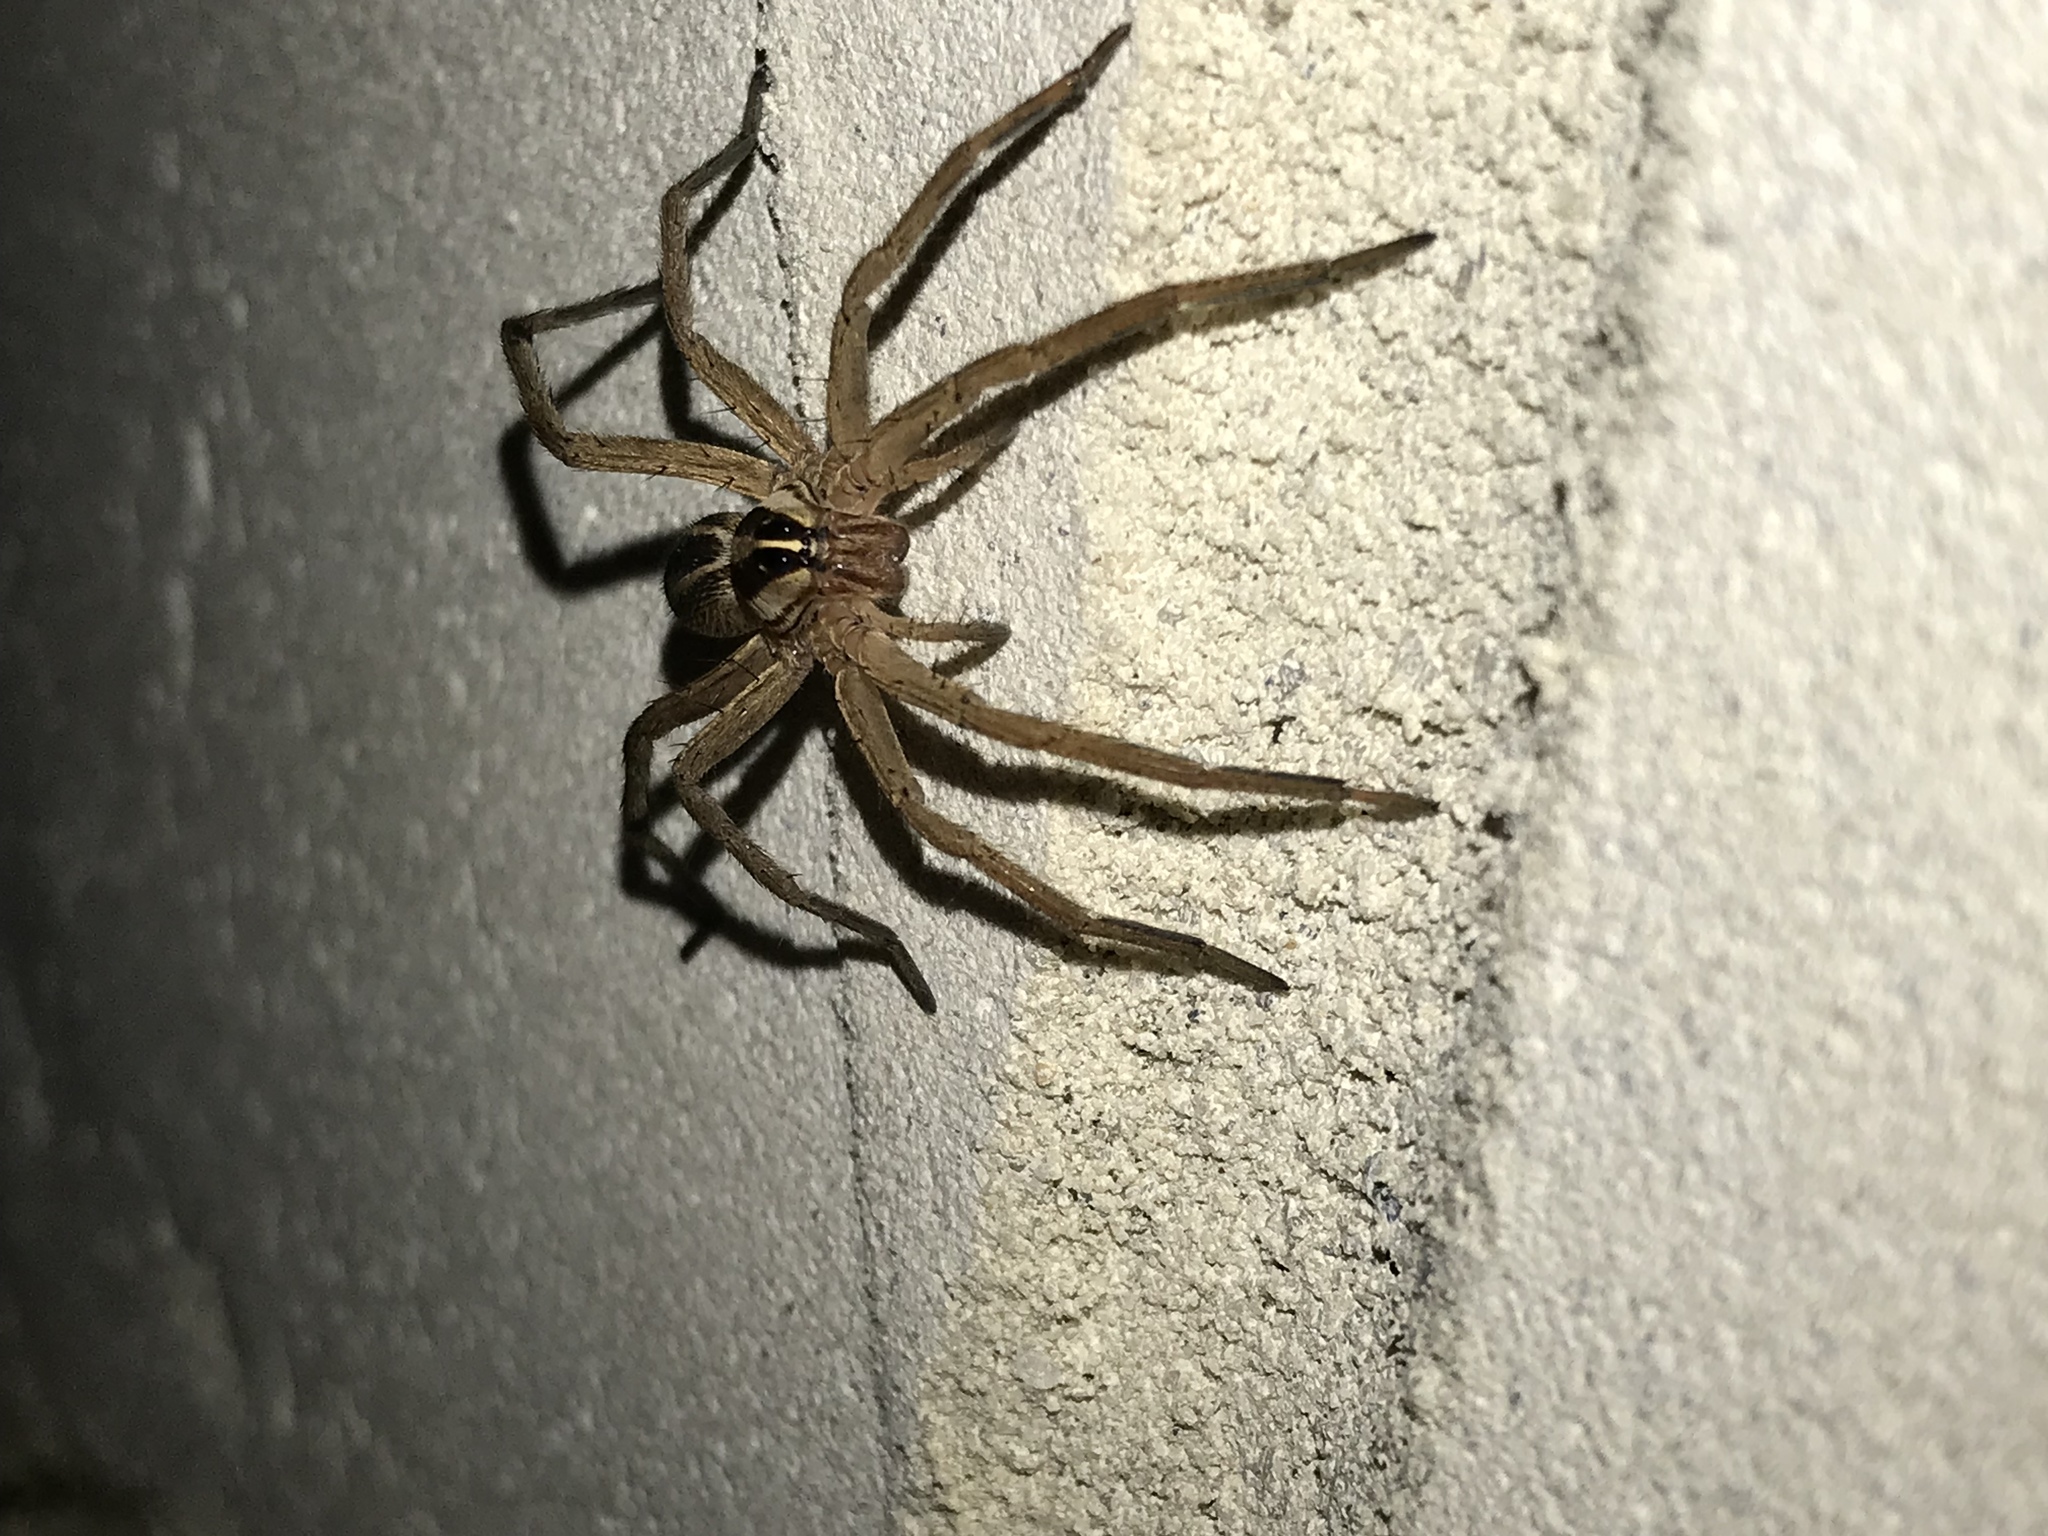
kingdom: Animalia
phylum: Arthropoda
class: Arachnida
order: Araneae
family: Lycosidae
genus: Rabidosa
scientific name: Rabidosa rabida
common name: Rabid wolf spider
